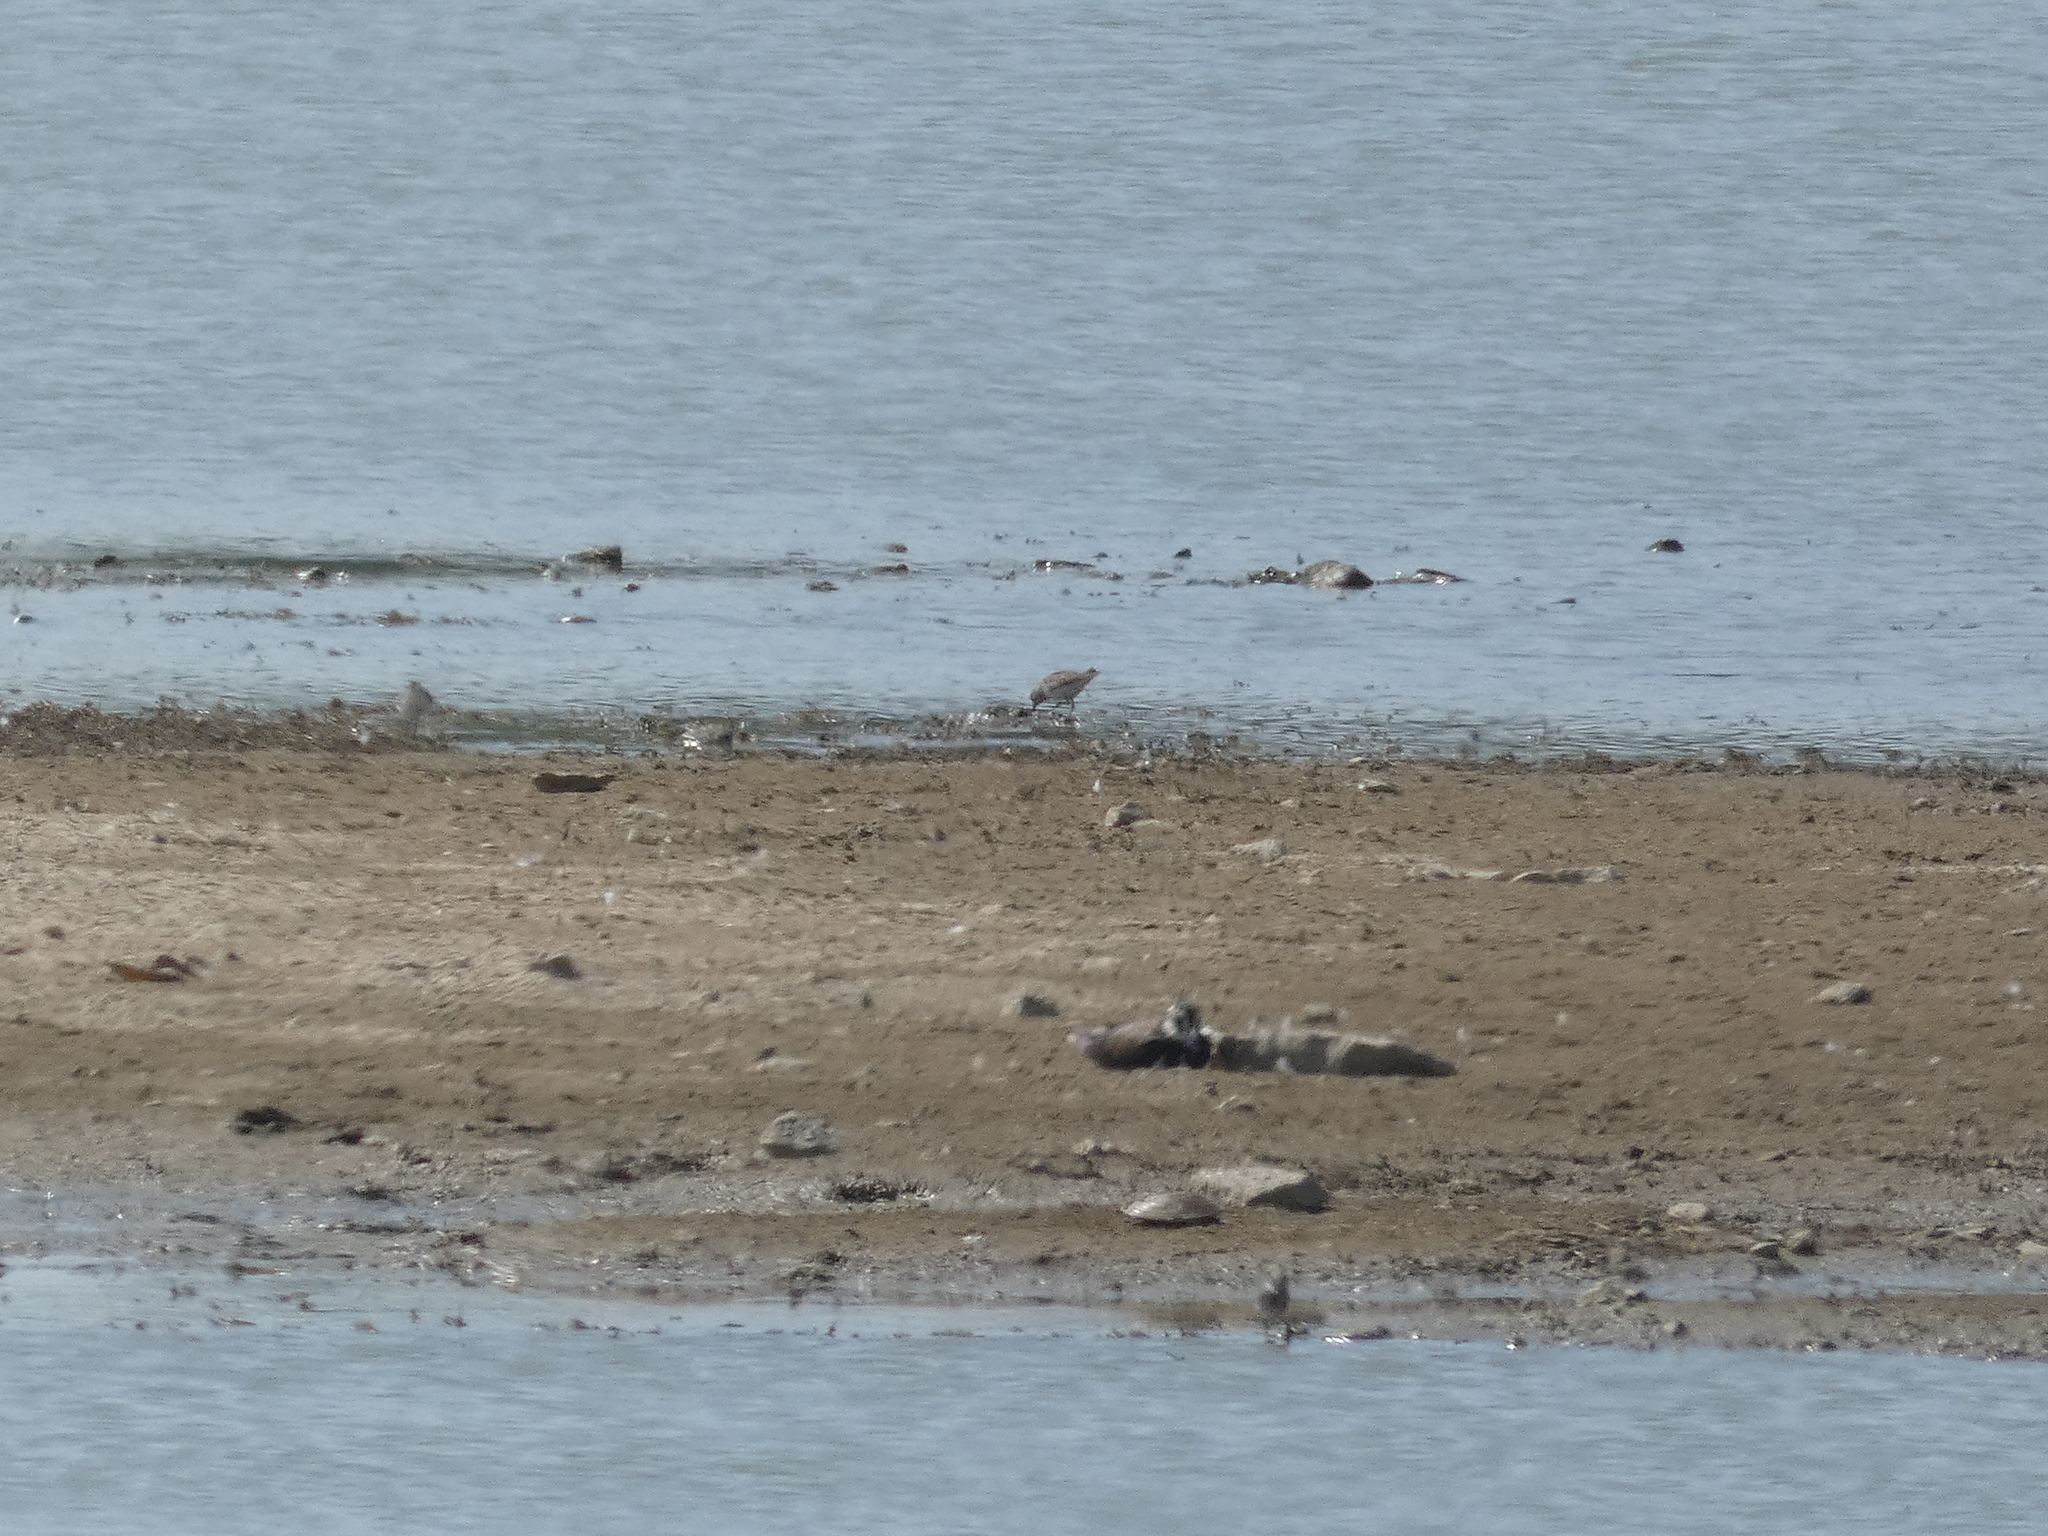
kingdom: Animalia
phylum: Chordata
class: Aves
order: Charadriiformes
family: Scolopacidae
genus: Calidris
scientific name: Calidris temminckii
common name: Temminck's stint
